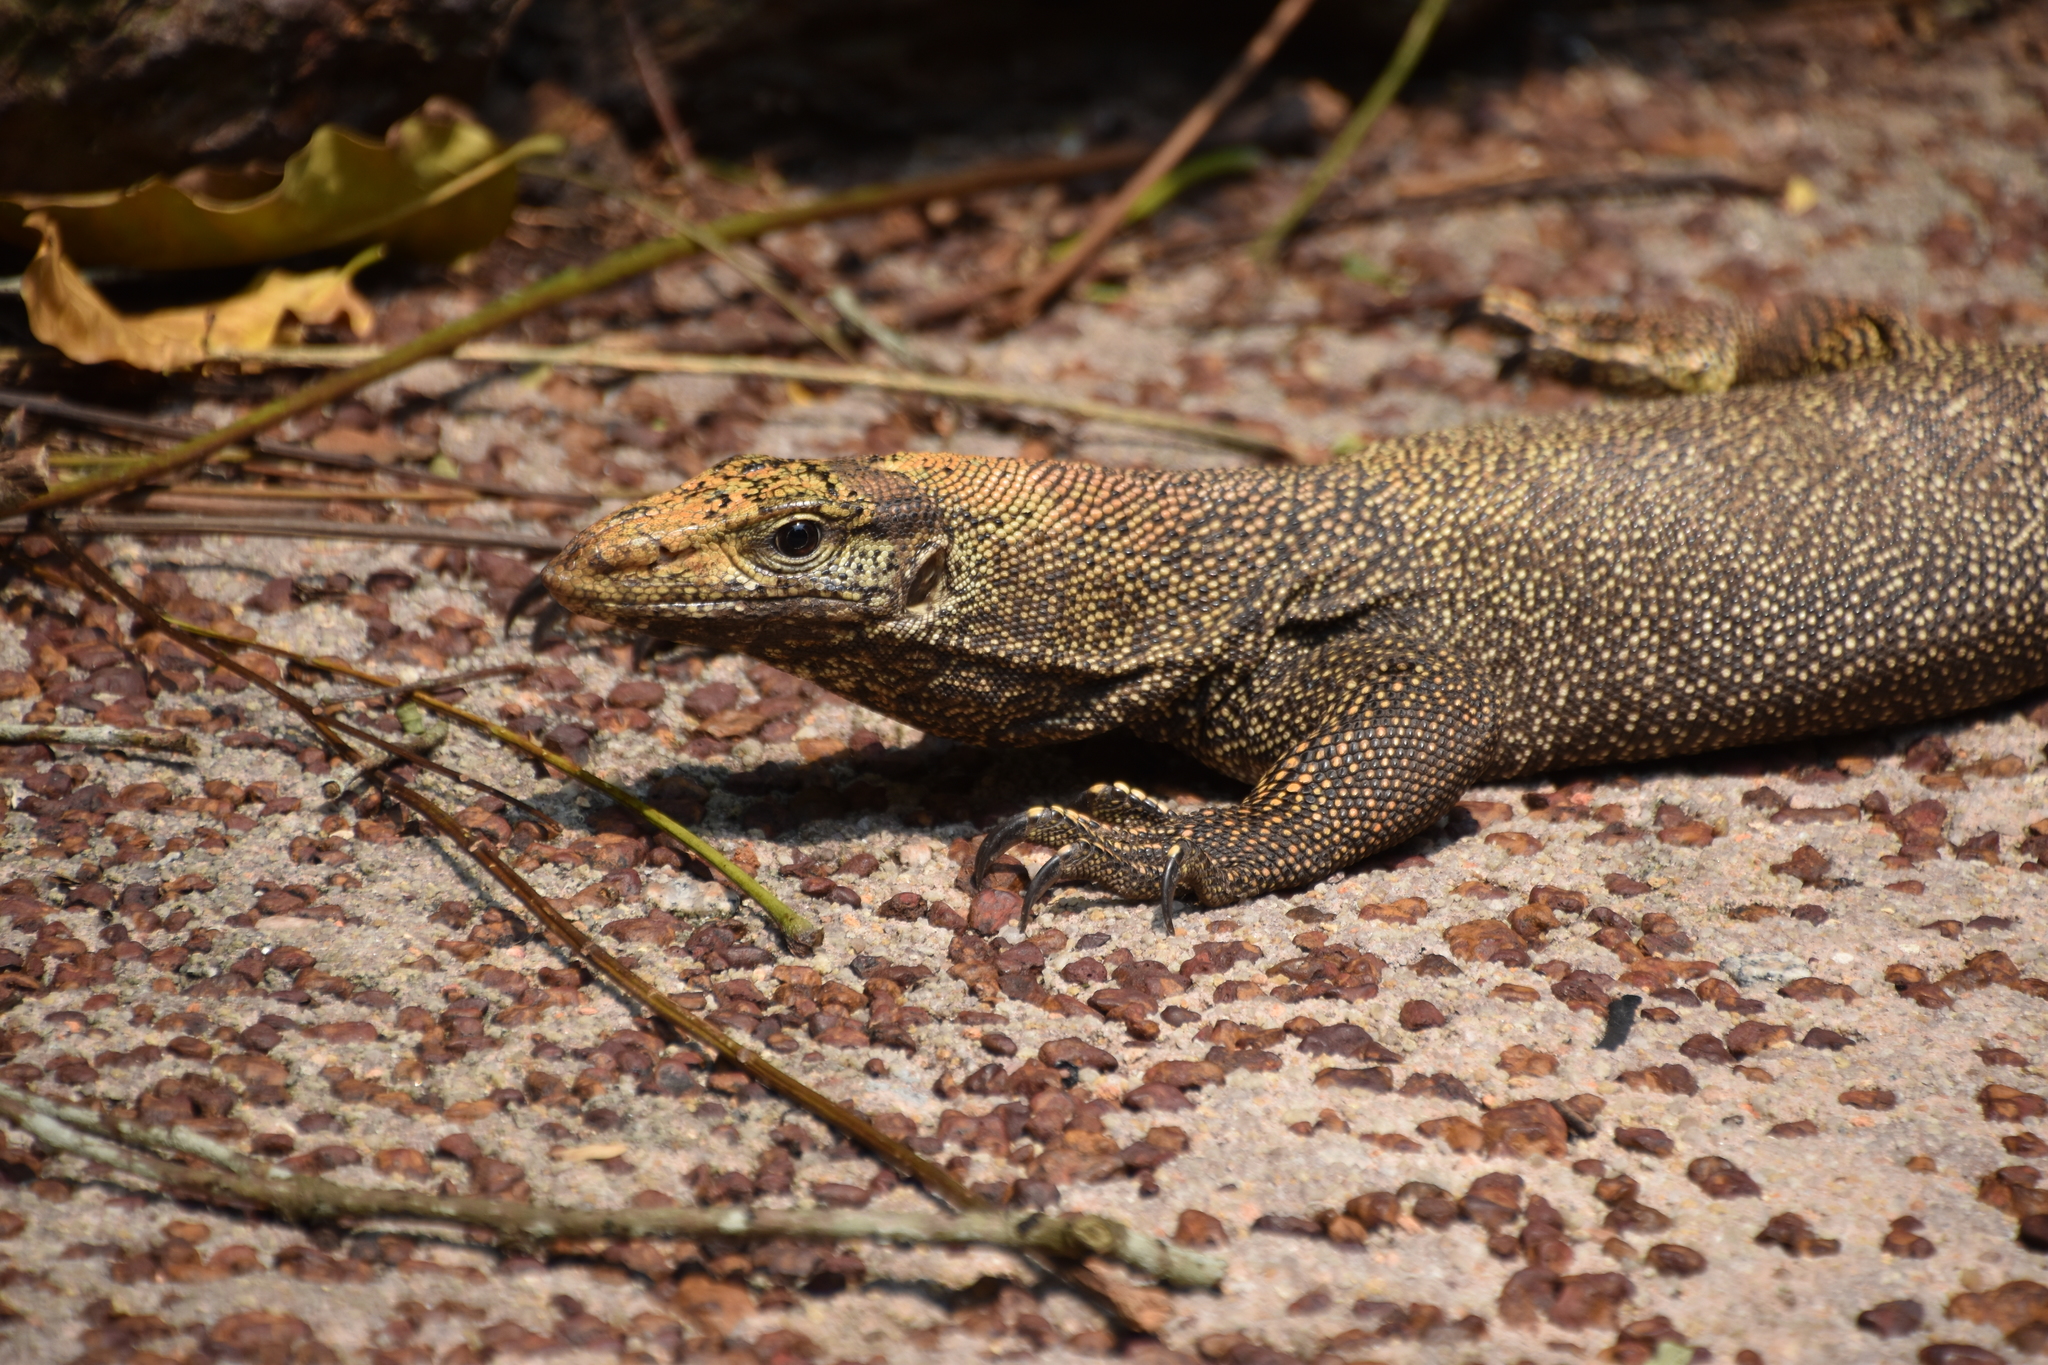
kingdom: Animalia
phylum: Chordata
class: Squamata
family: Varanidae
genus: Varanus
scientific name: Varanus nebulosus
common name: Clouded monitor
